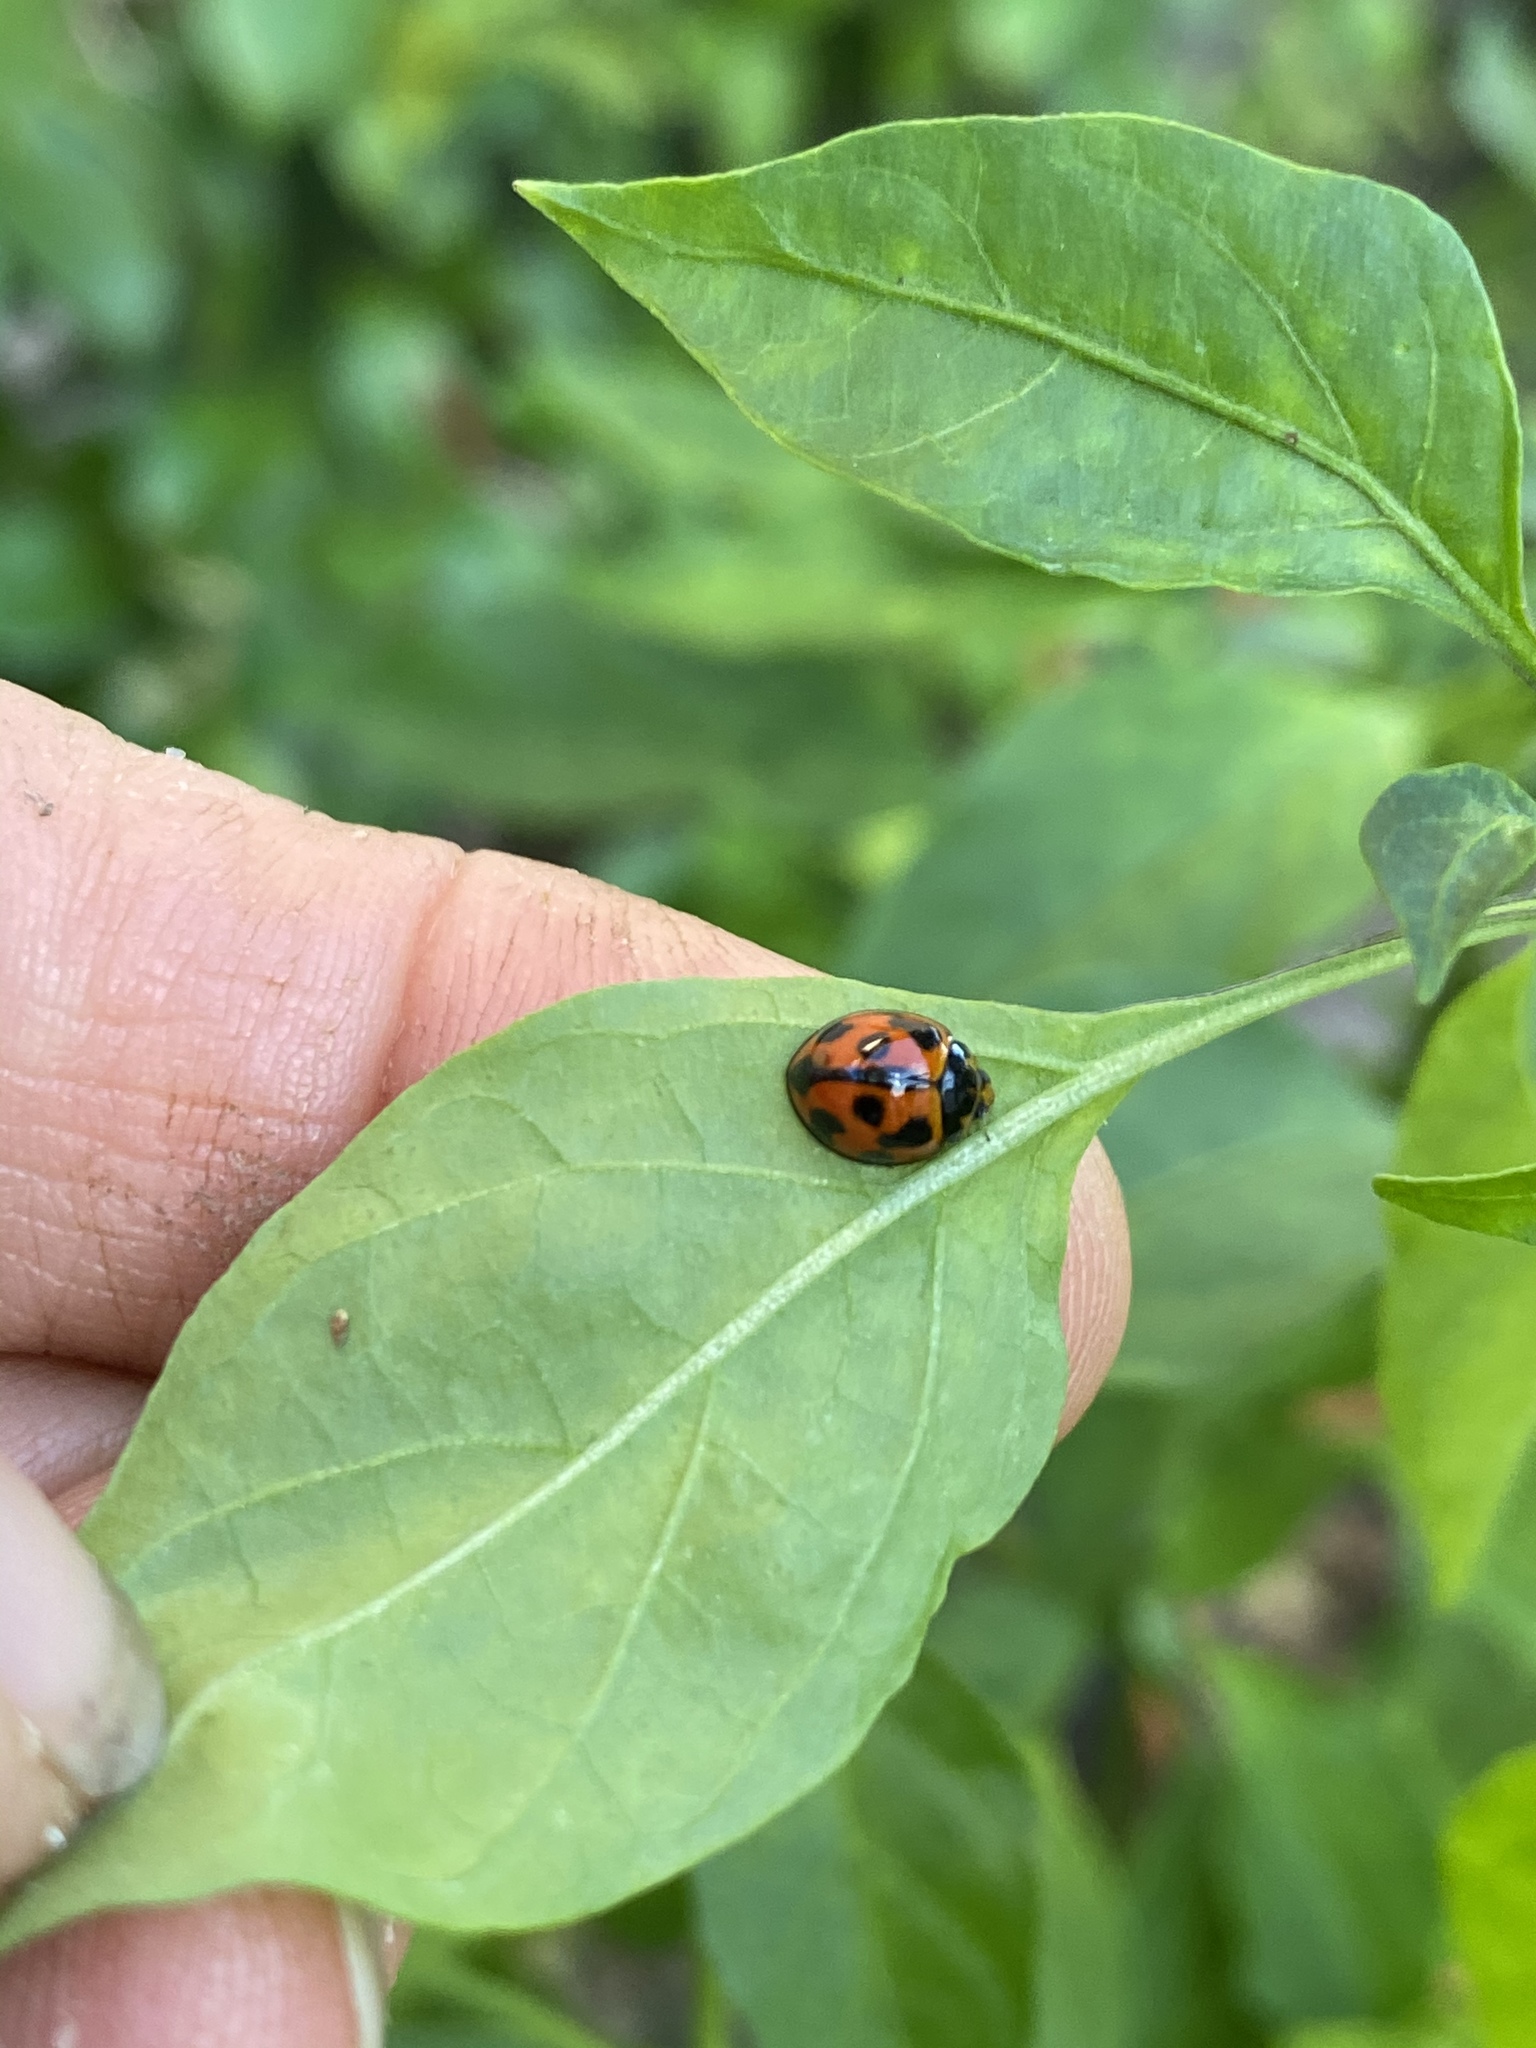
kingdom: Animalia
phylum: Arthropoda
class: Insecta
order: Coleoptera
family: Coccinellidae
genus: Coelophora
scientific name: Coelophora inaequalis
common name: Common australian lady beetle
